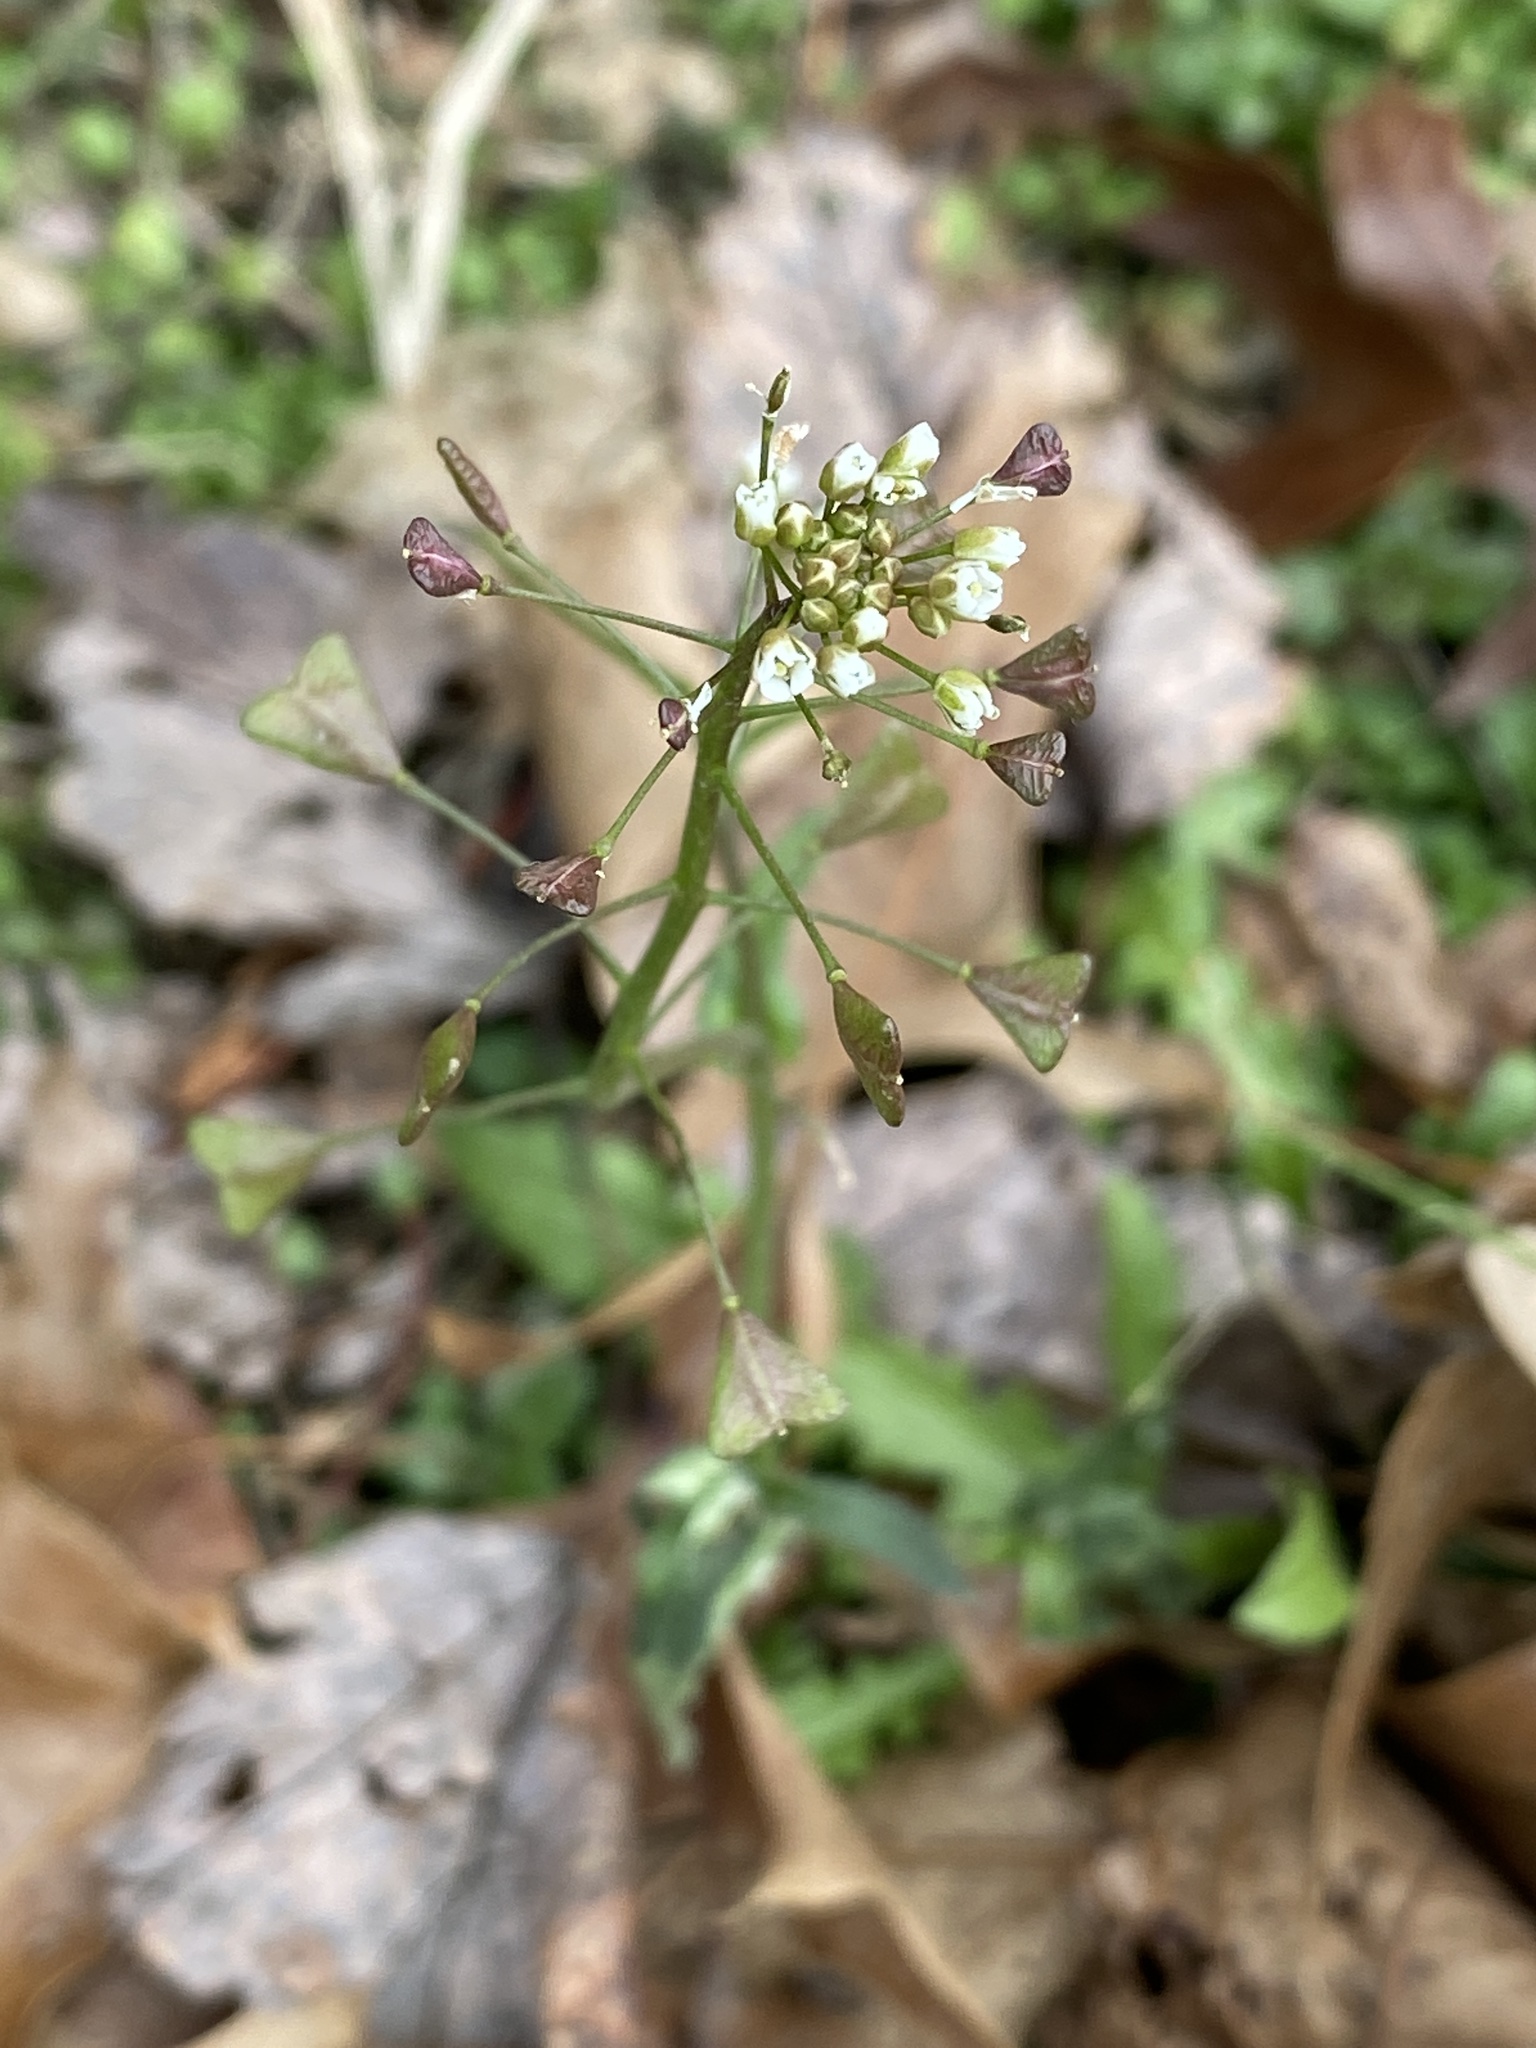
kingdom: Plantae
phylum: Tracheophyta
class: Magnoliopsida
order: Brassicales
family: Brassicaceae
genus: Capsella
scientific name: Capsella bursa-pastoris
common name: Shepherd's purse
